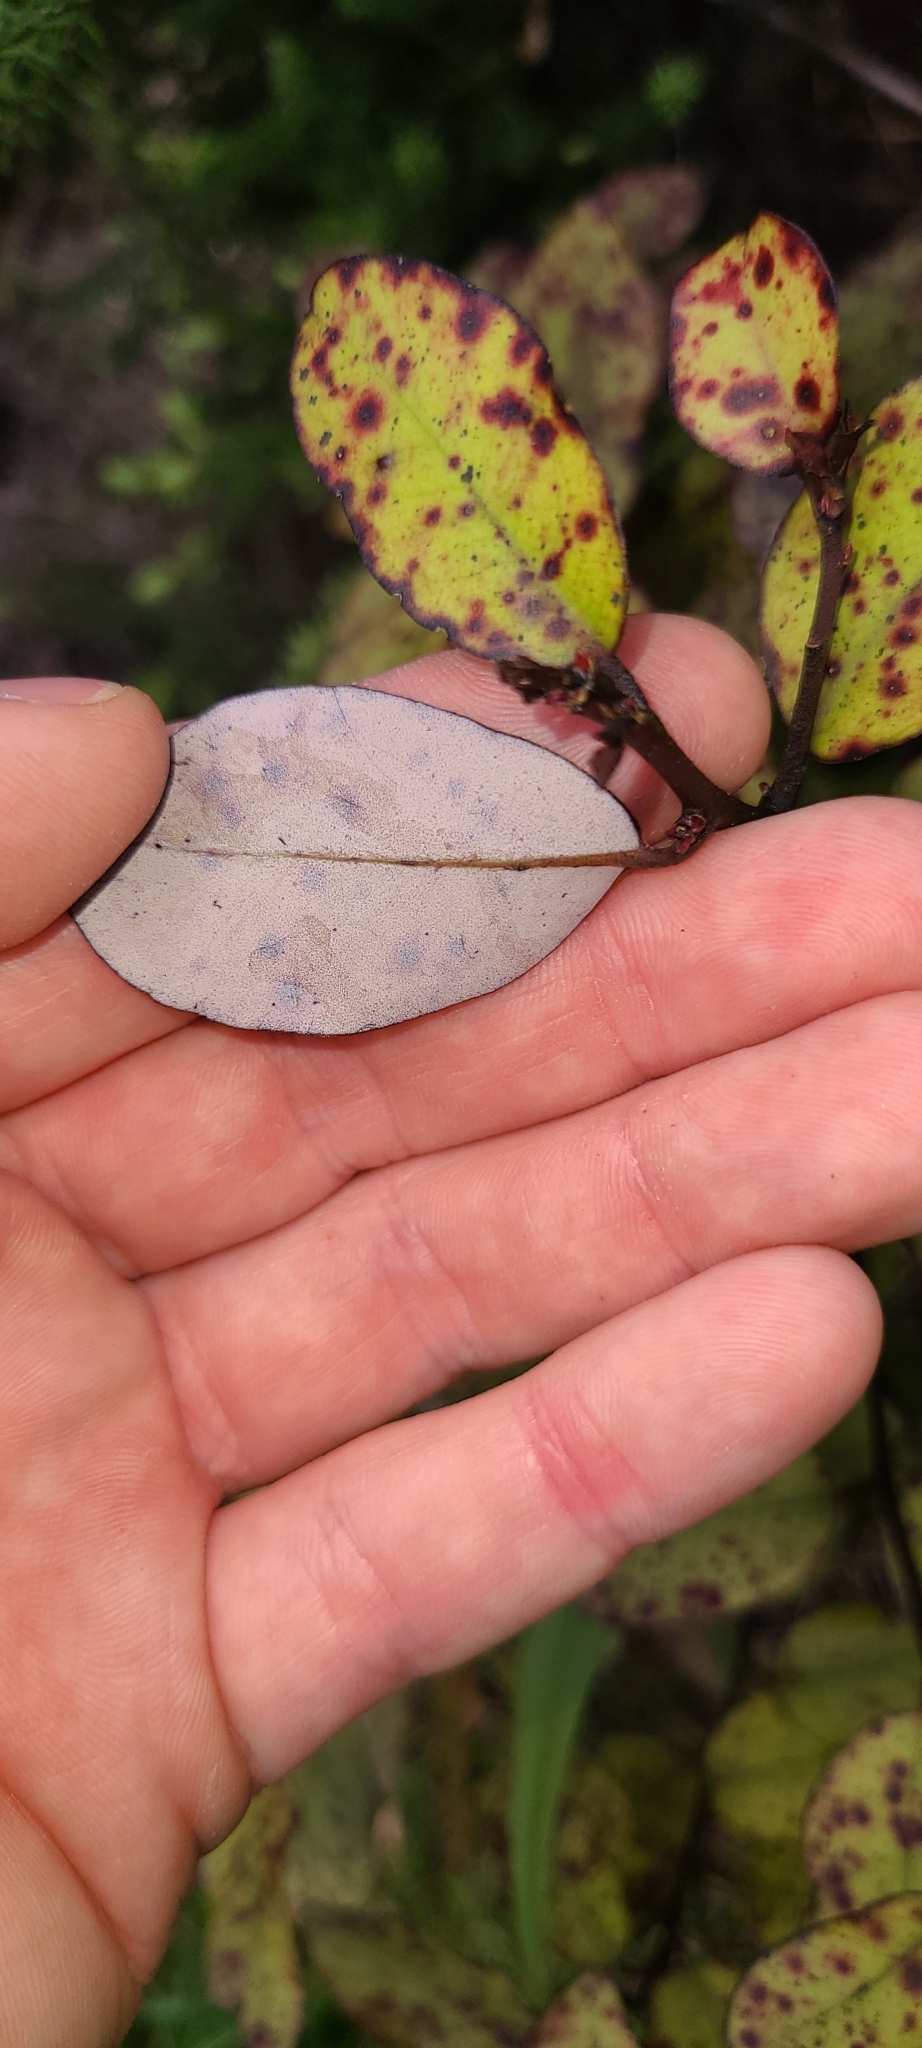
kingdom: Plantae
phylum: Tracheophyta
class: Magnoliopsida
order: Canellales
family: Winteraceae
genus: Pseudowintera
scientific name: Pseudowintera colorata
